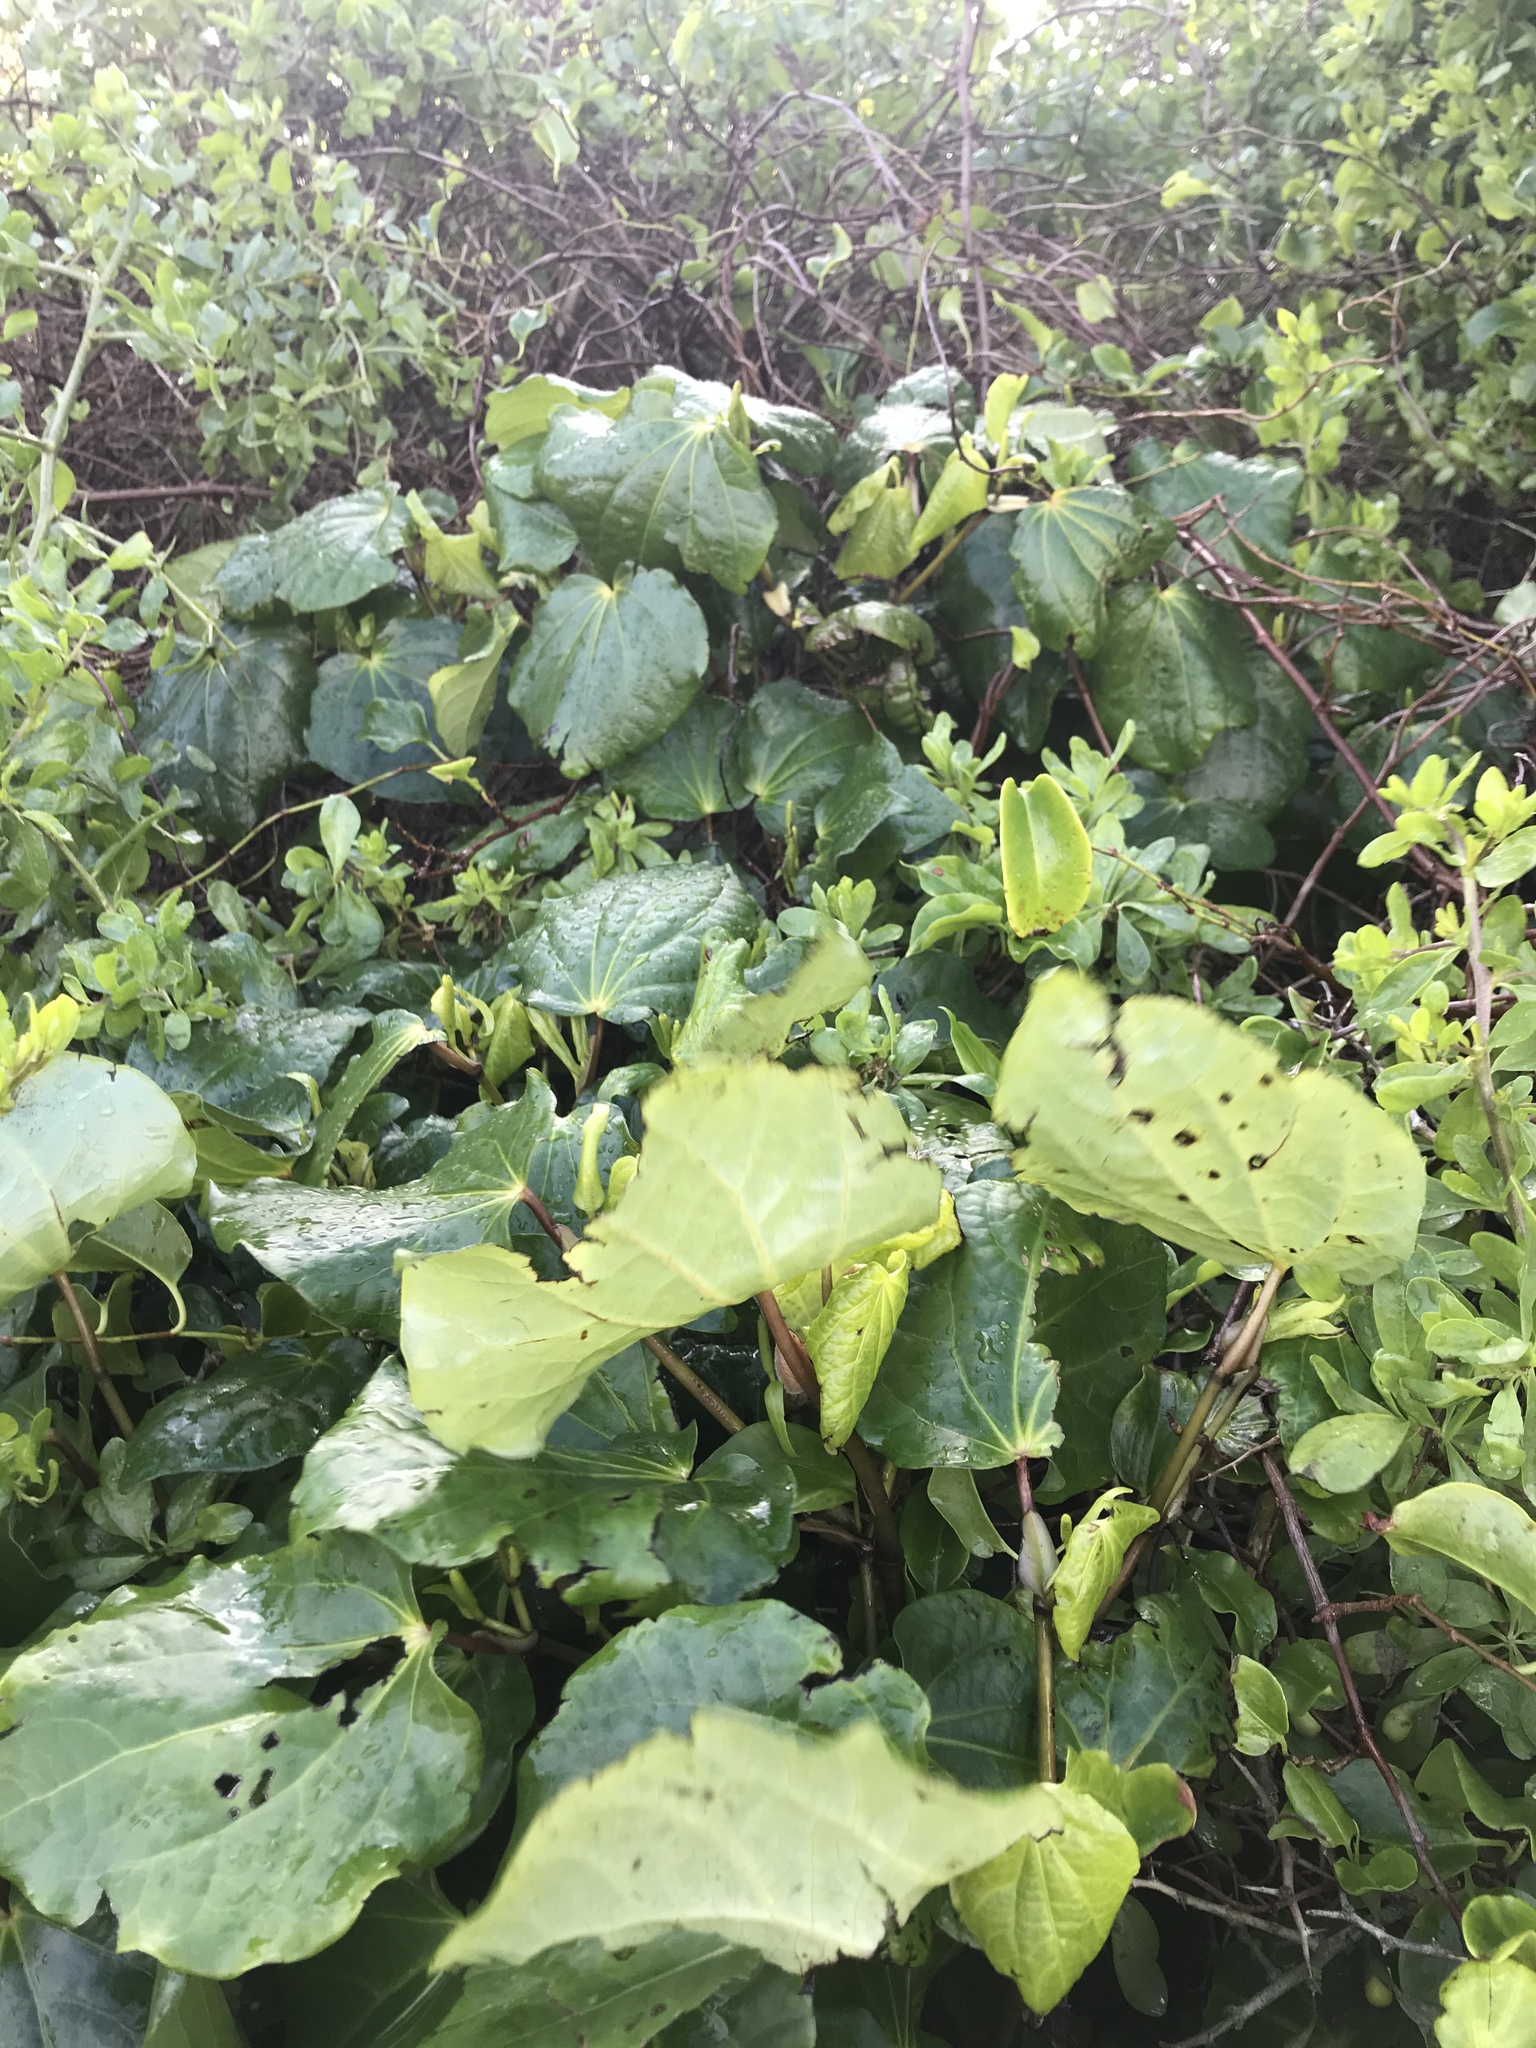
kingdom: Plantae
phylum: Tracheophyta
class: Magnoliopsida
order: Piperales
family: Piperaceae
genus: Macropiper
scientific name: Macropiper excelsum
